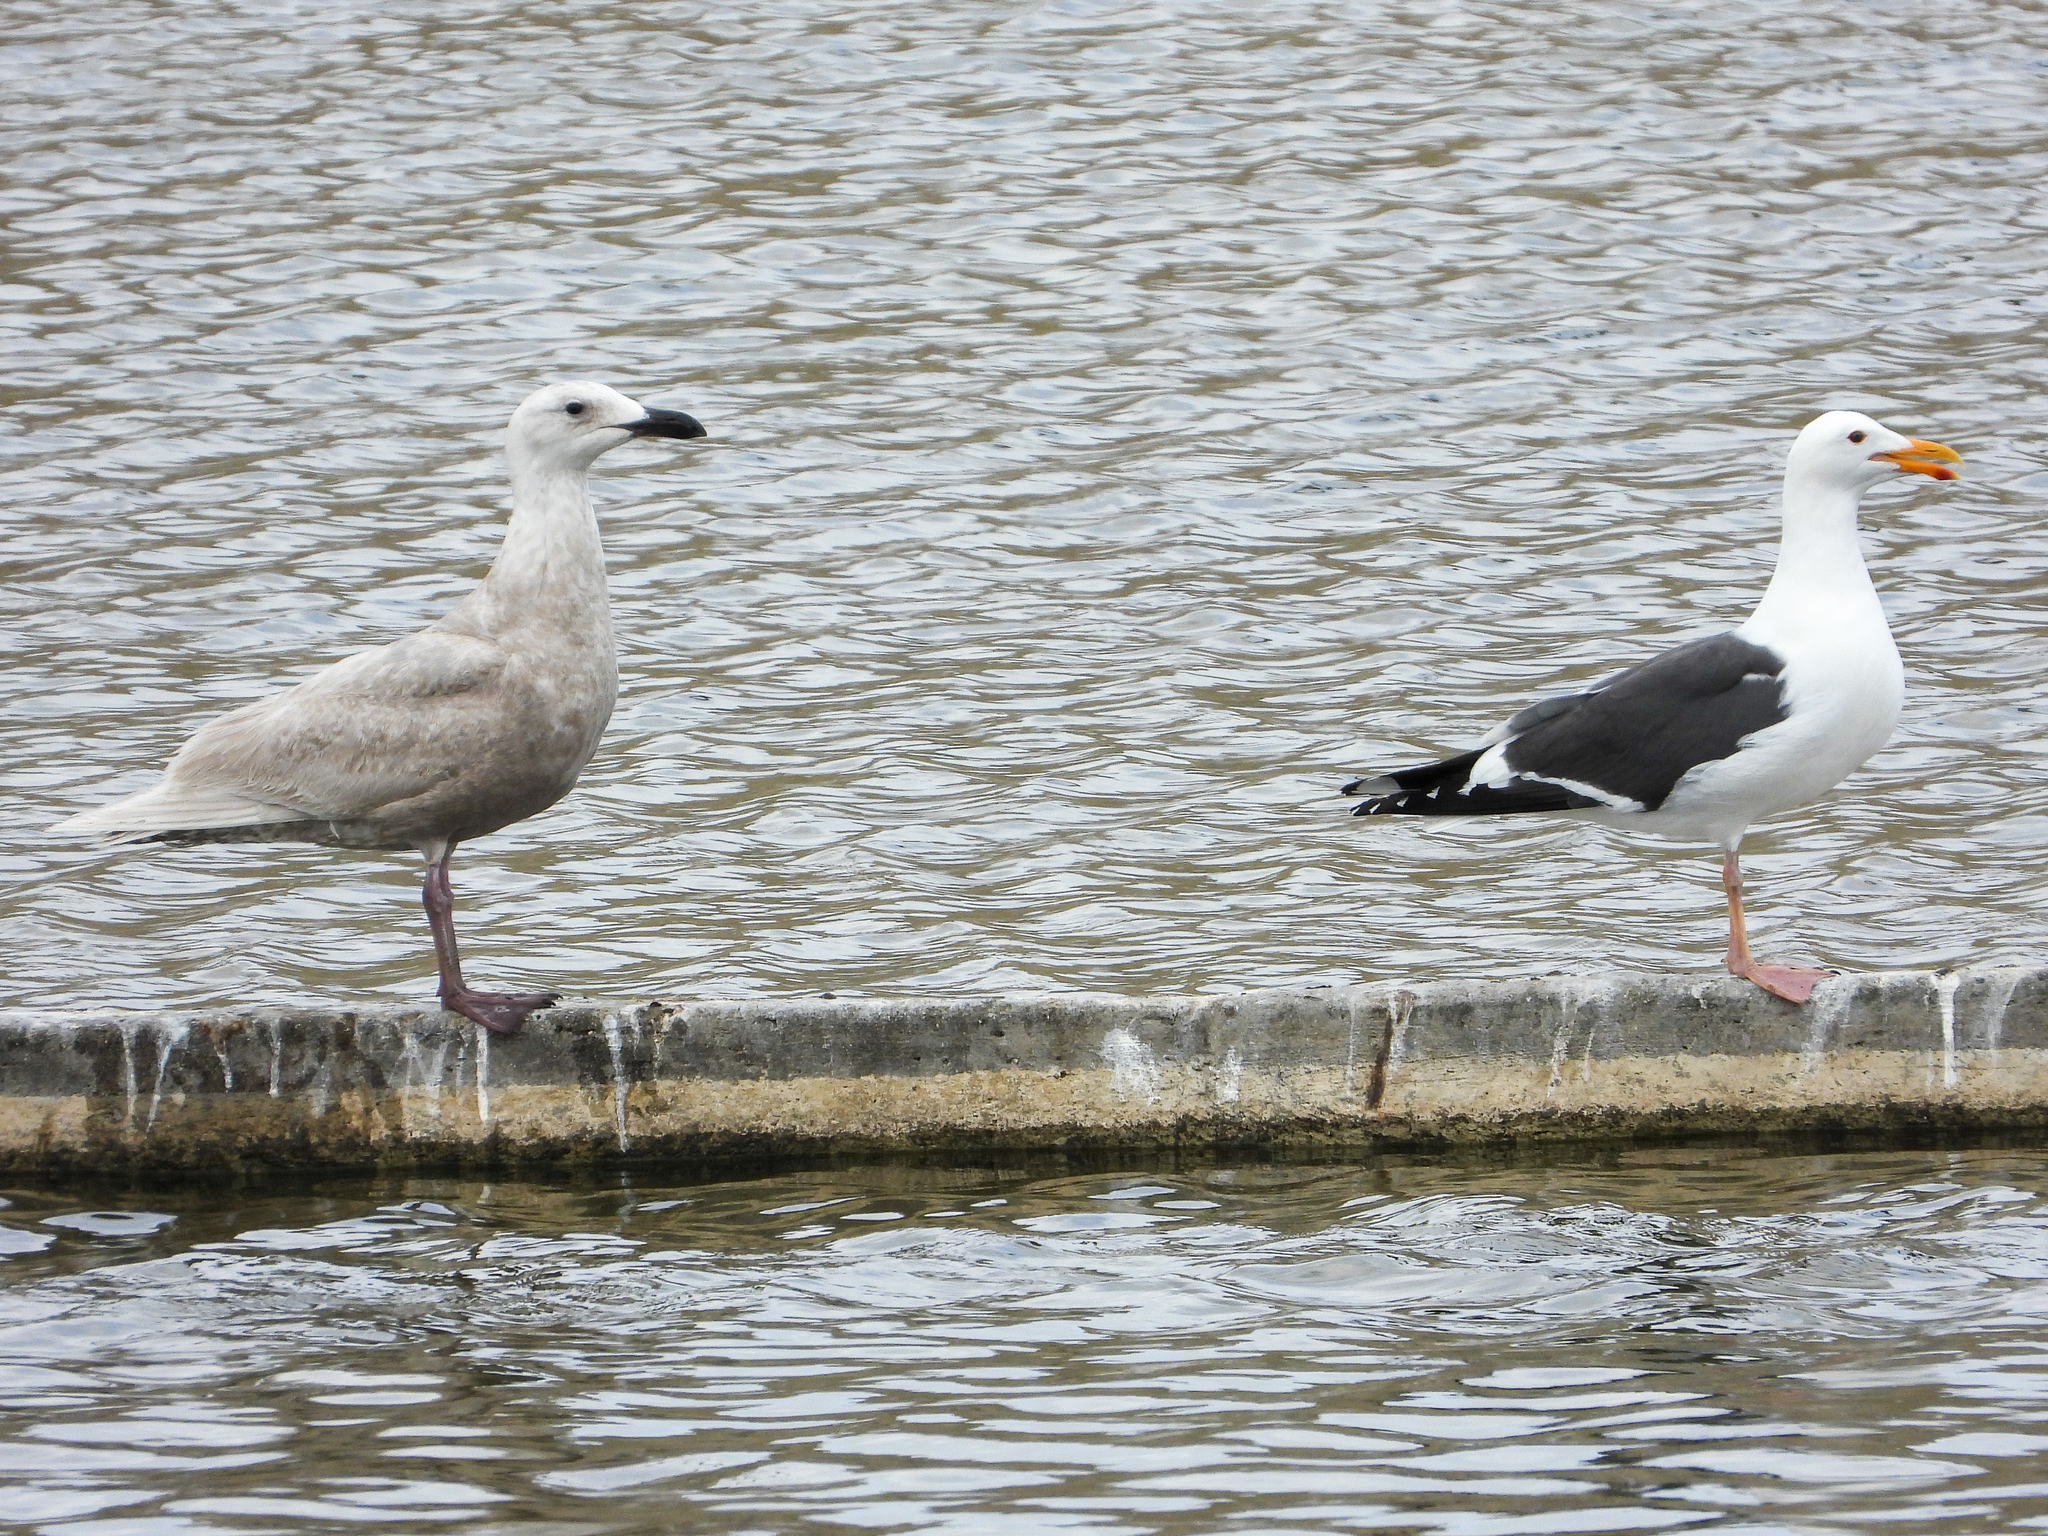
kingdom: Animalia
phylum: Chordata
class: Aves
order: Charadriiformes
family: Laridae
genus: Larus
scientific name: Larus glaucescens
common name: Glaucous-winged gull
